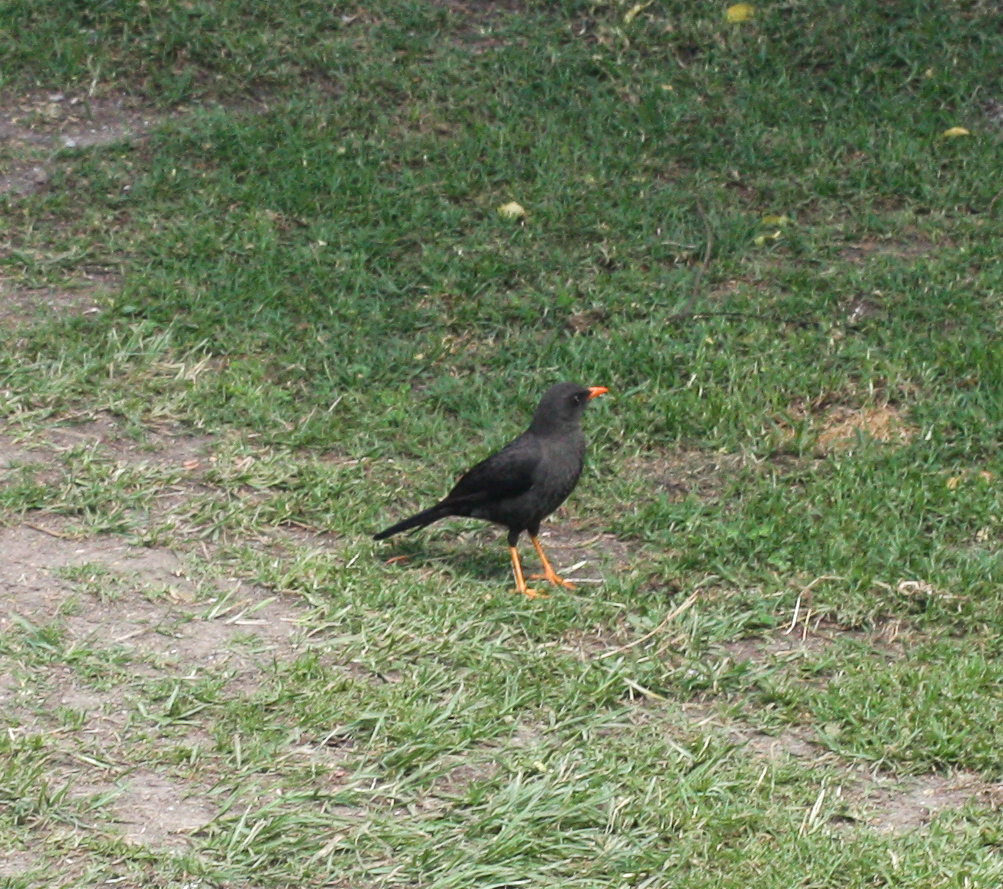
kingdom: Animalia
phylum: Chordata
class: Aves
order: Passeriformes
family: Turdidae
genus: Turdus
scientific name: Turdus fuscater
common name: Great thrush
